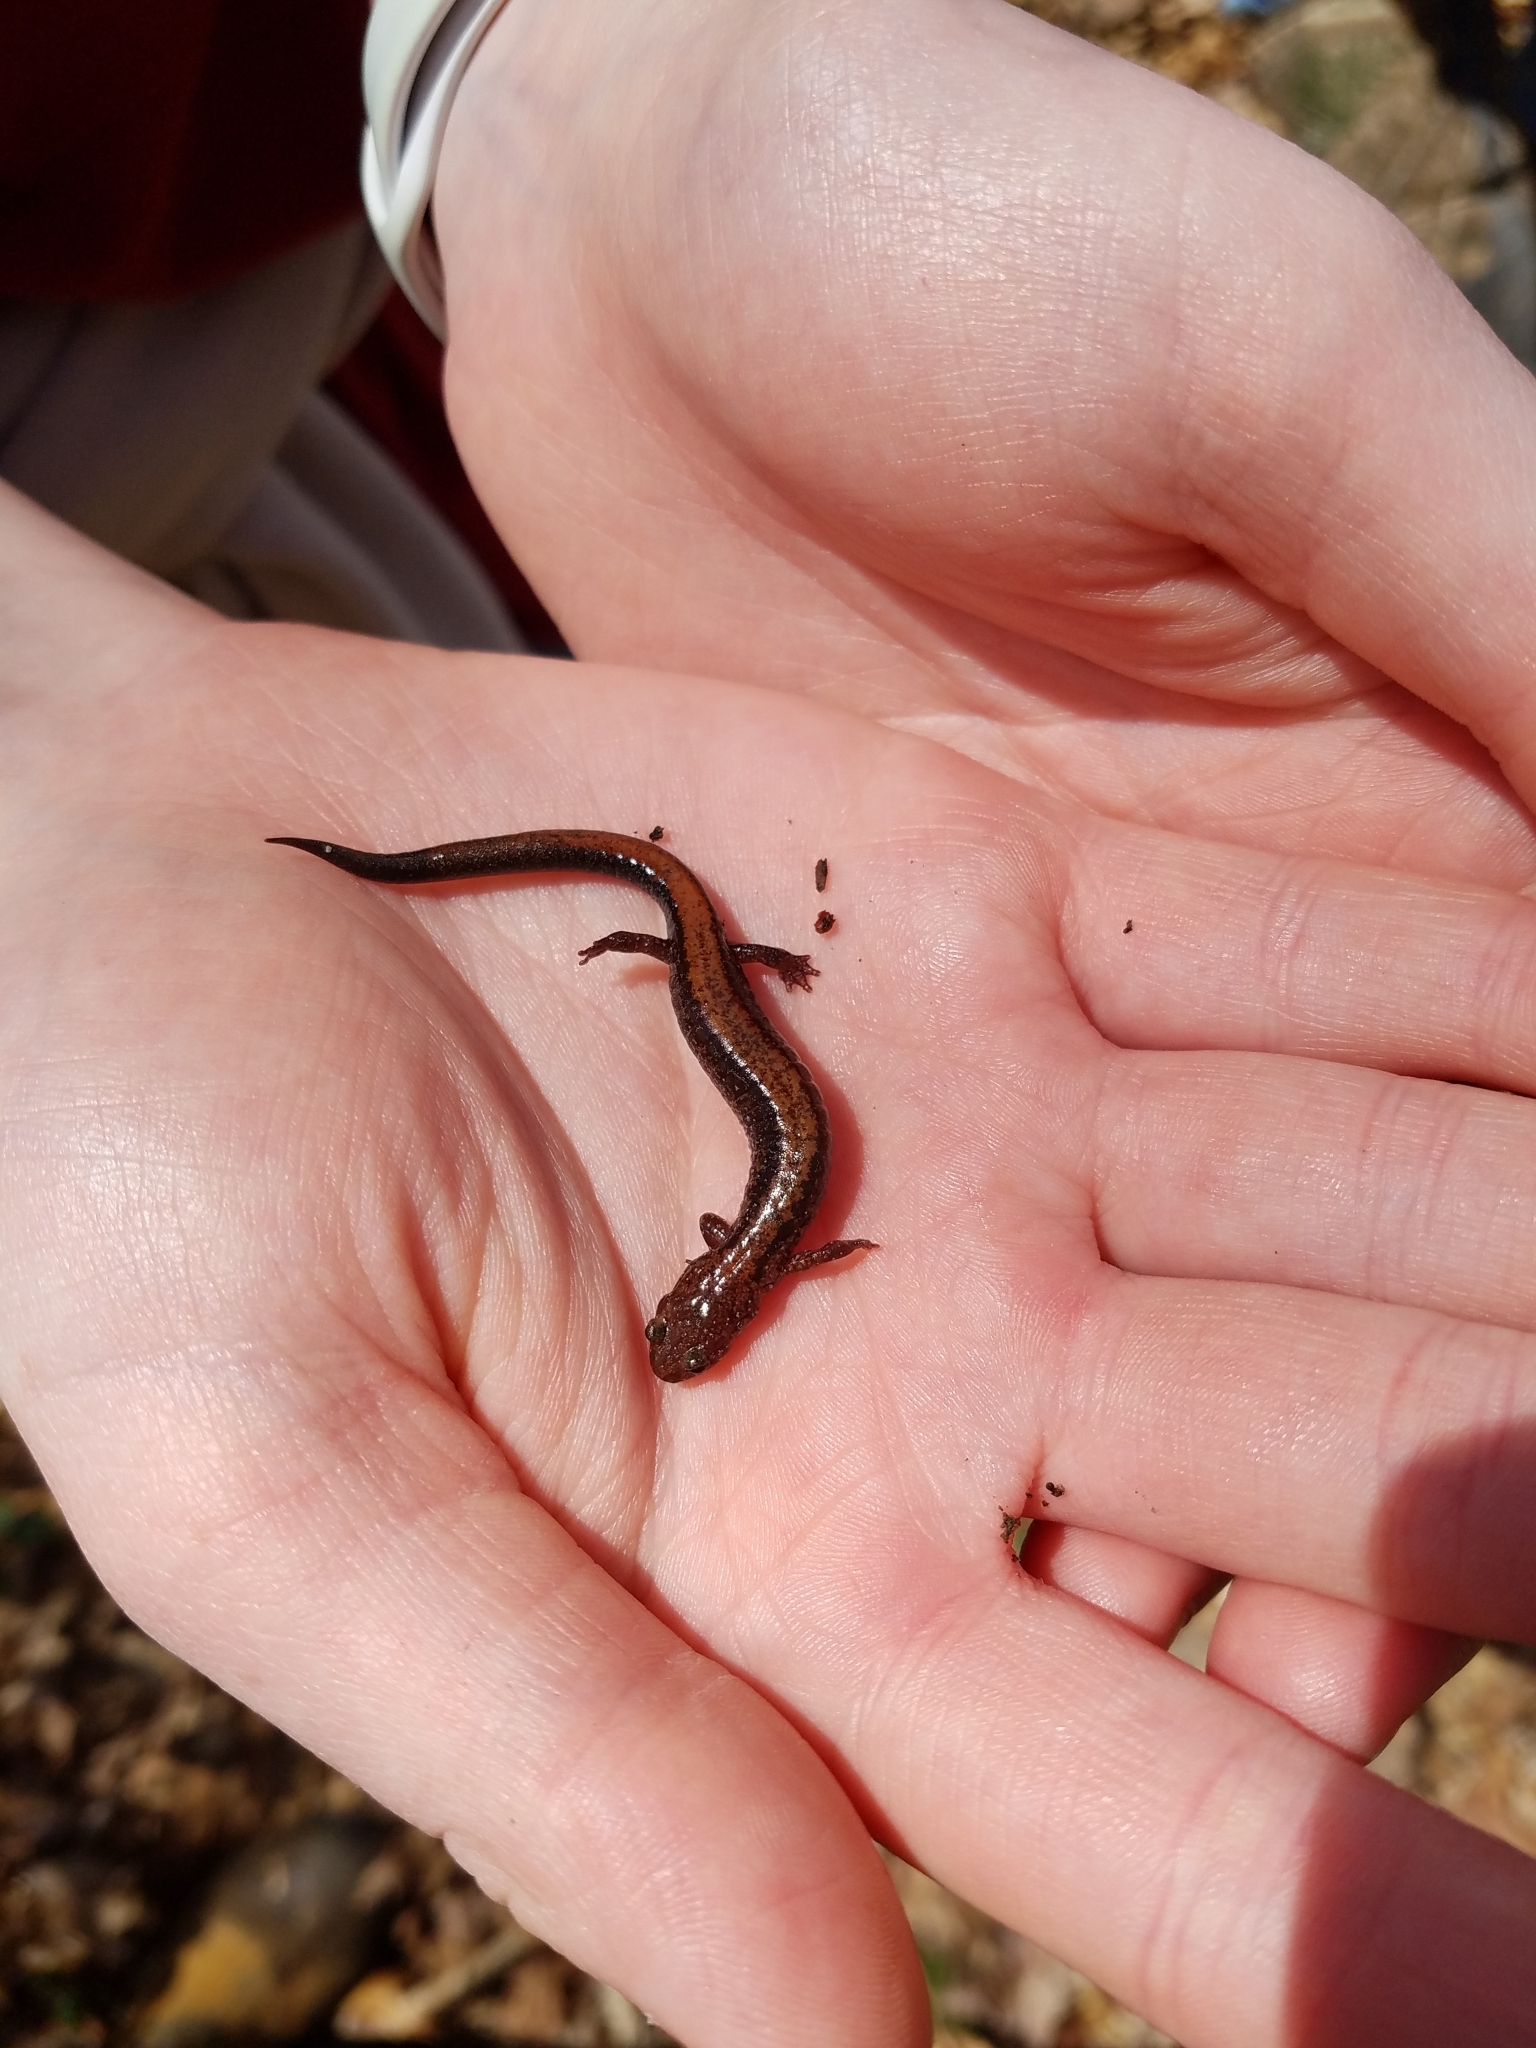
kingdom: Animalia
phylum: Chordata
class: Amphibia
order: Caudata
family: Plethodontidae
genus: Plethodon
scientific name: Plethodon cinereus
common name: Redback salamander
